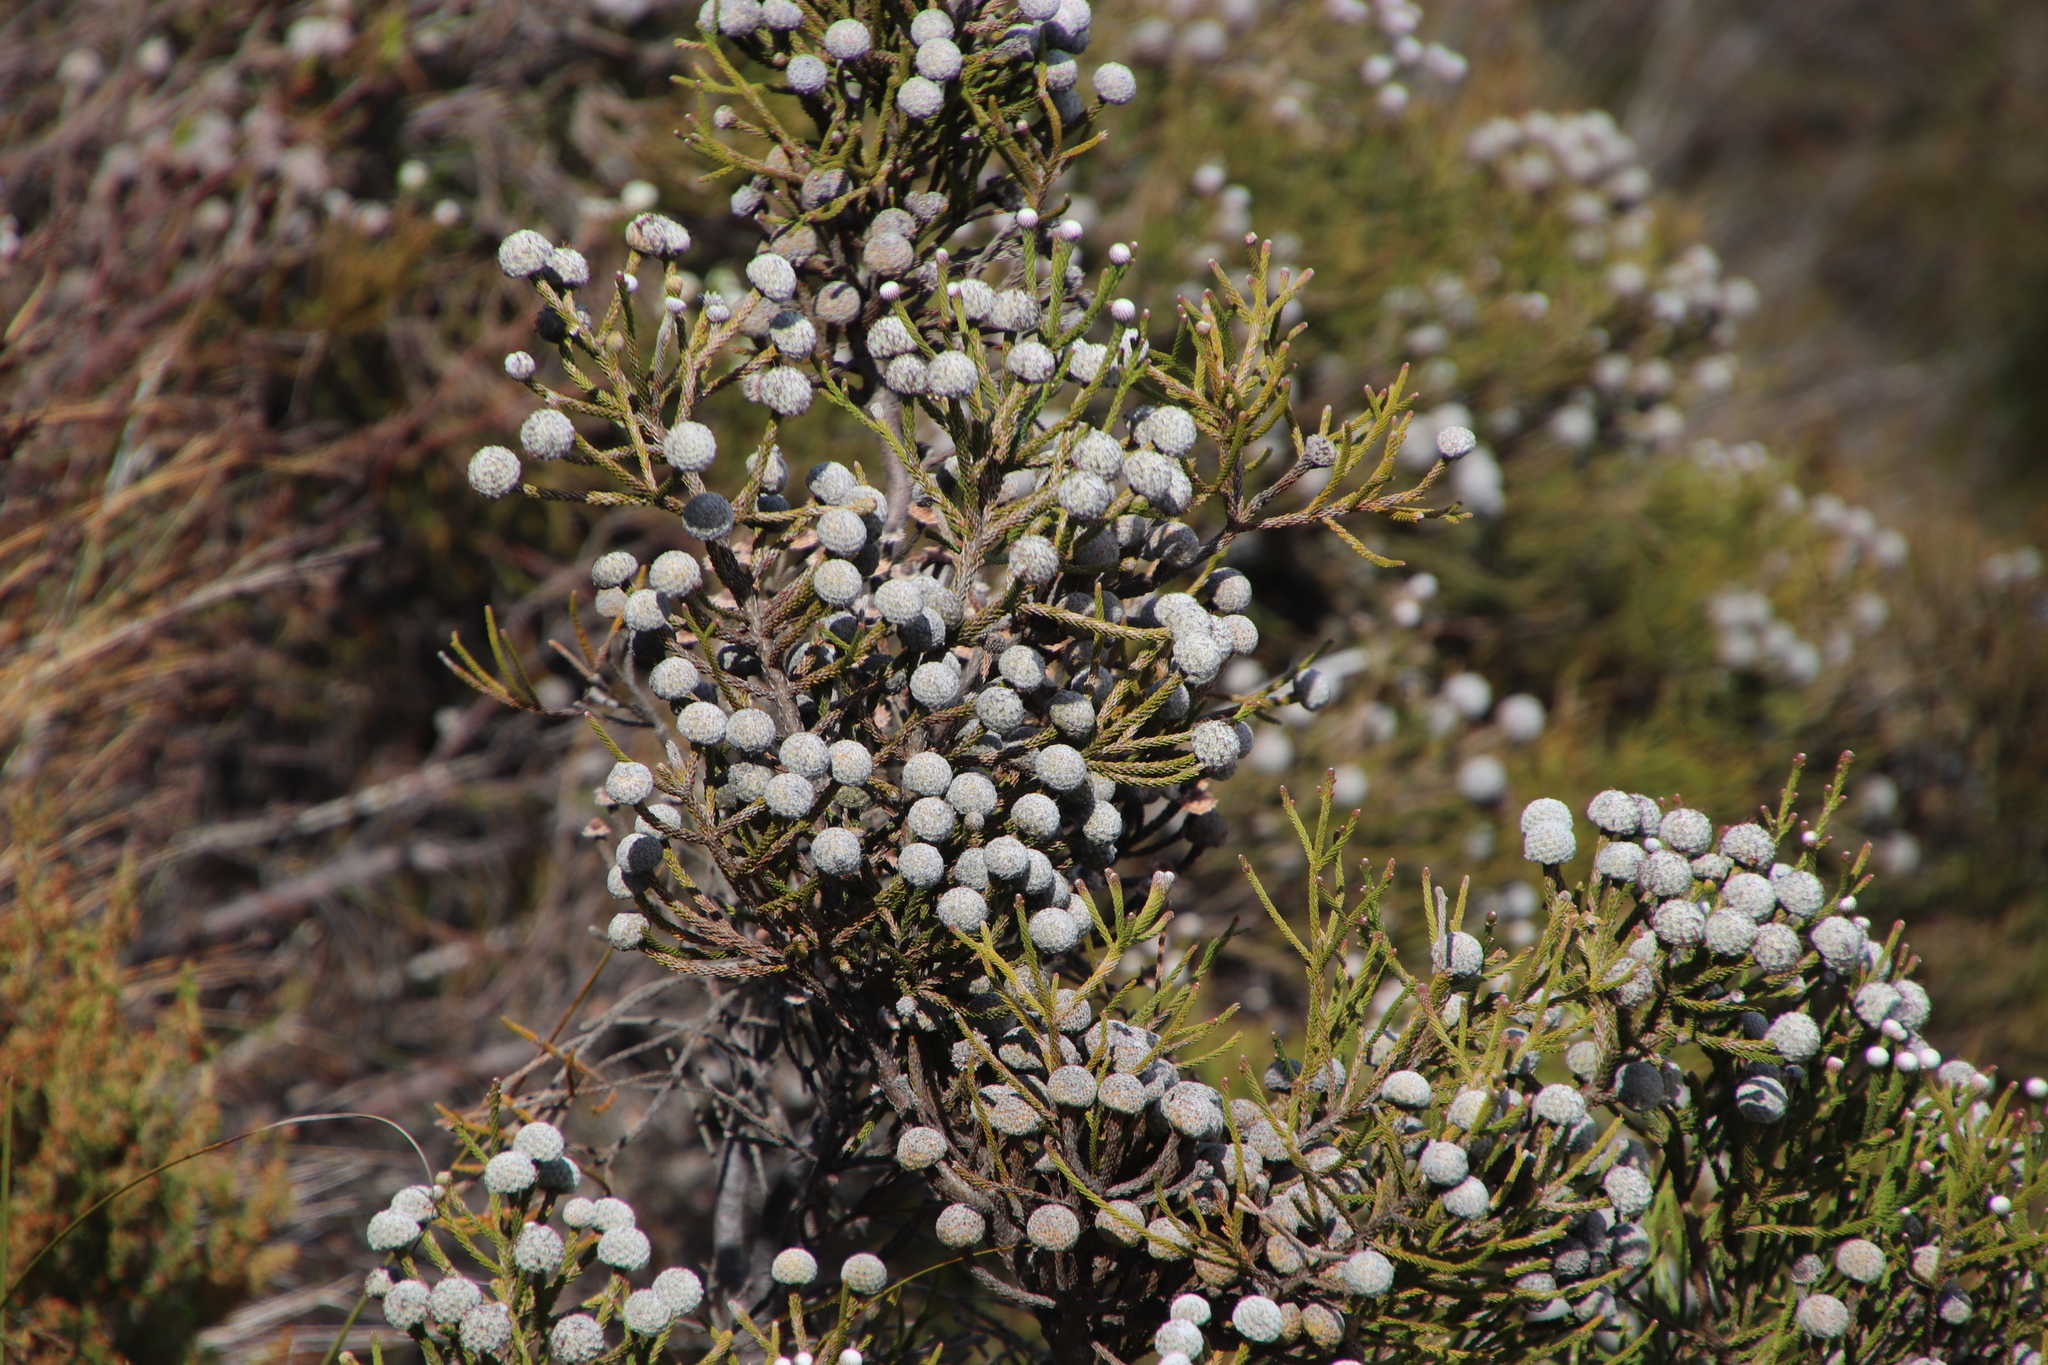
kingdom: Plantae
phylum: Tracheophyta
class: Magnoliopsida
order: Bruniales
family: Bruniaceae
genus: Brunia
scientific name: Brunia laevis
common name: Silver brunia
